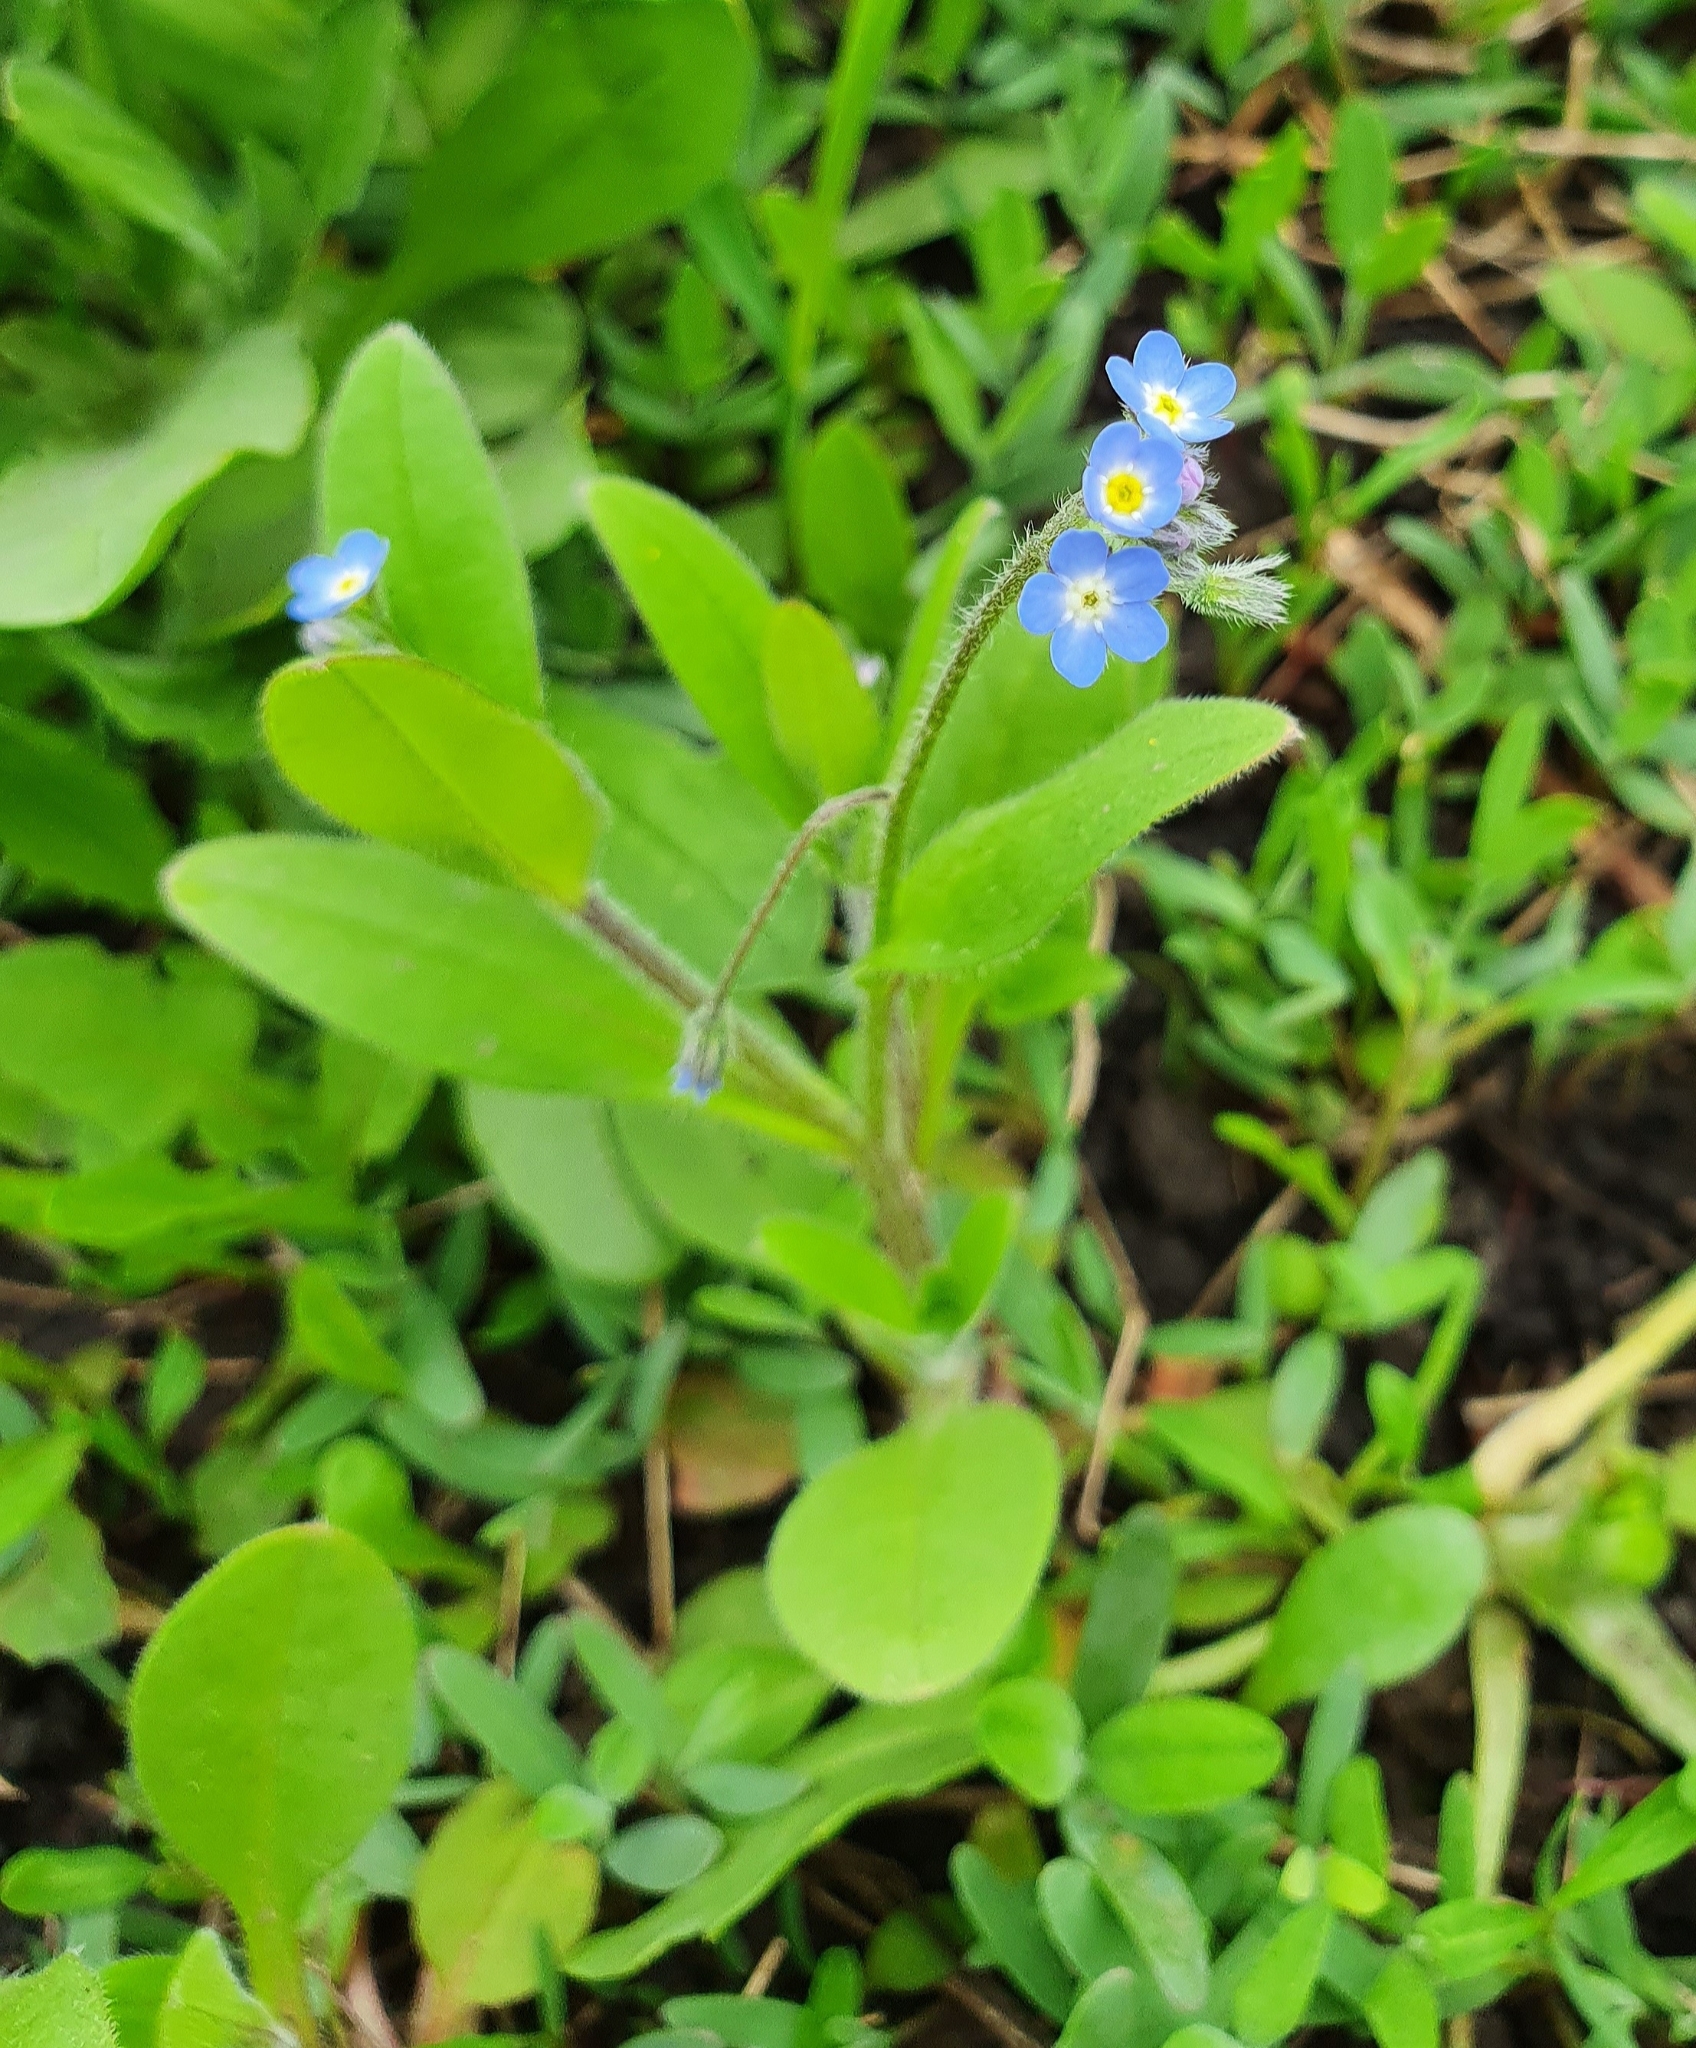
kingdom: Plantae
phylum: Tracheophyta
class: Magnoliopsida
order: Boraginales
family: Boraginaceae
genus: Myosotis
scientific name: Myosotis sparsiflora
